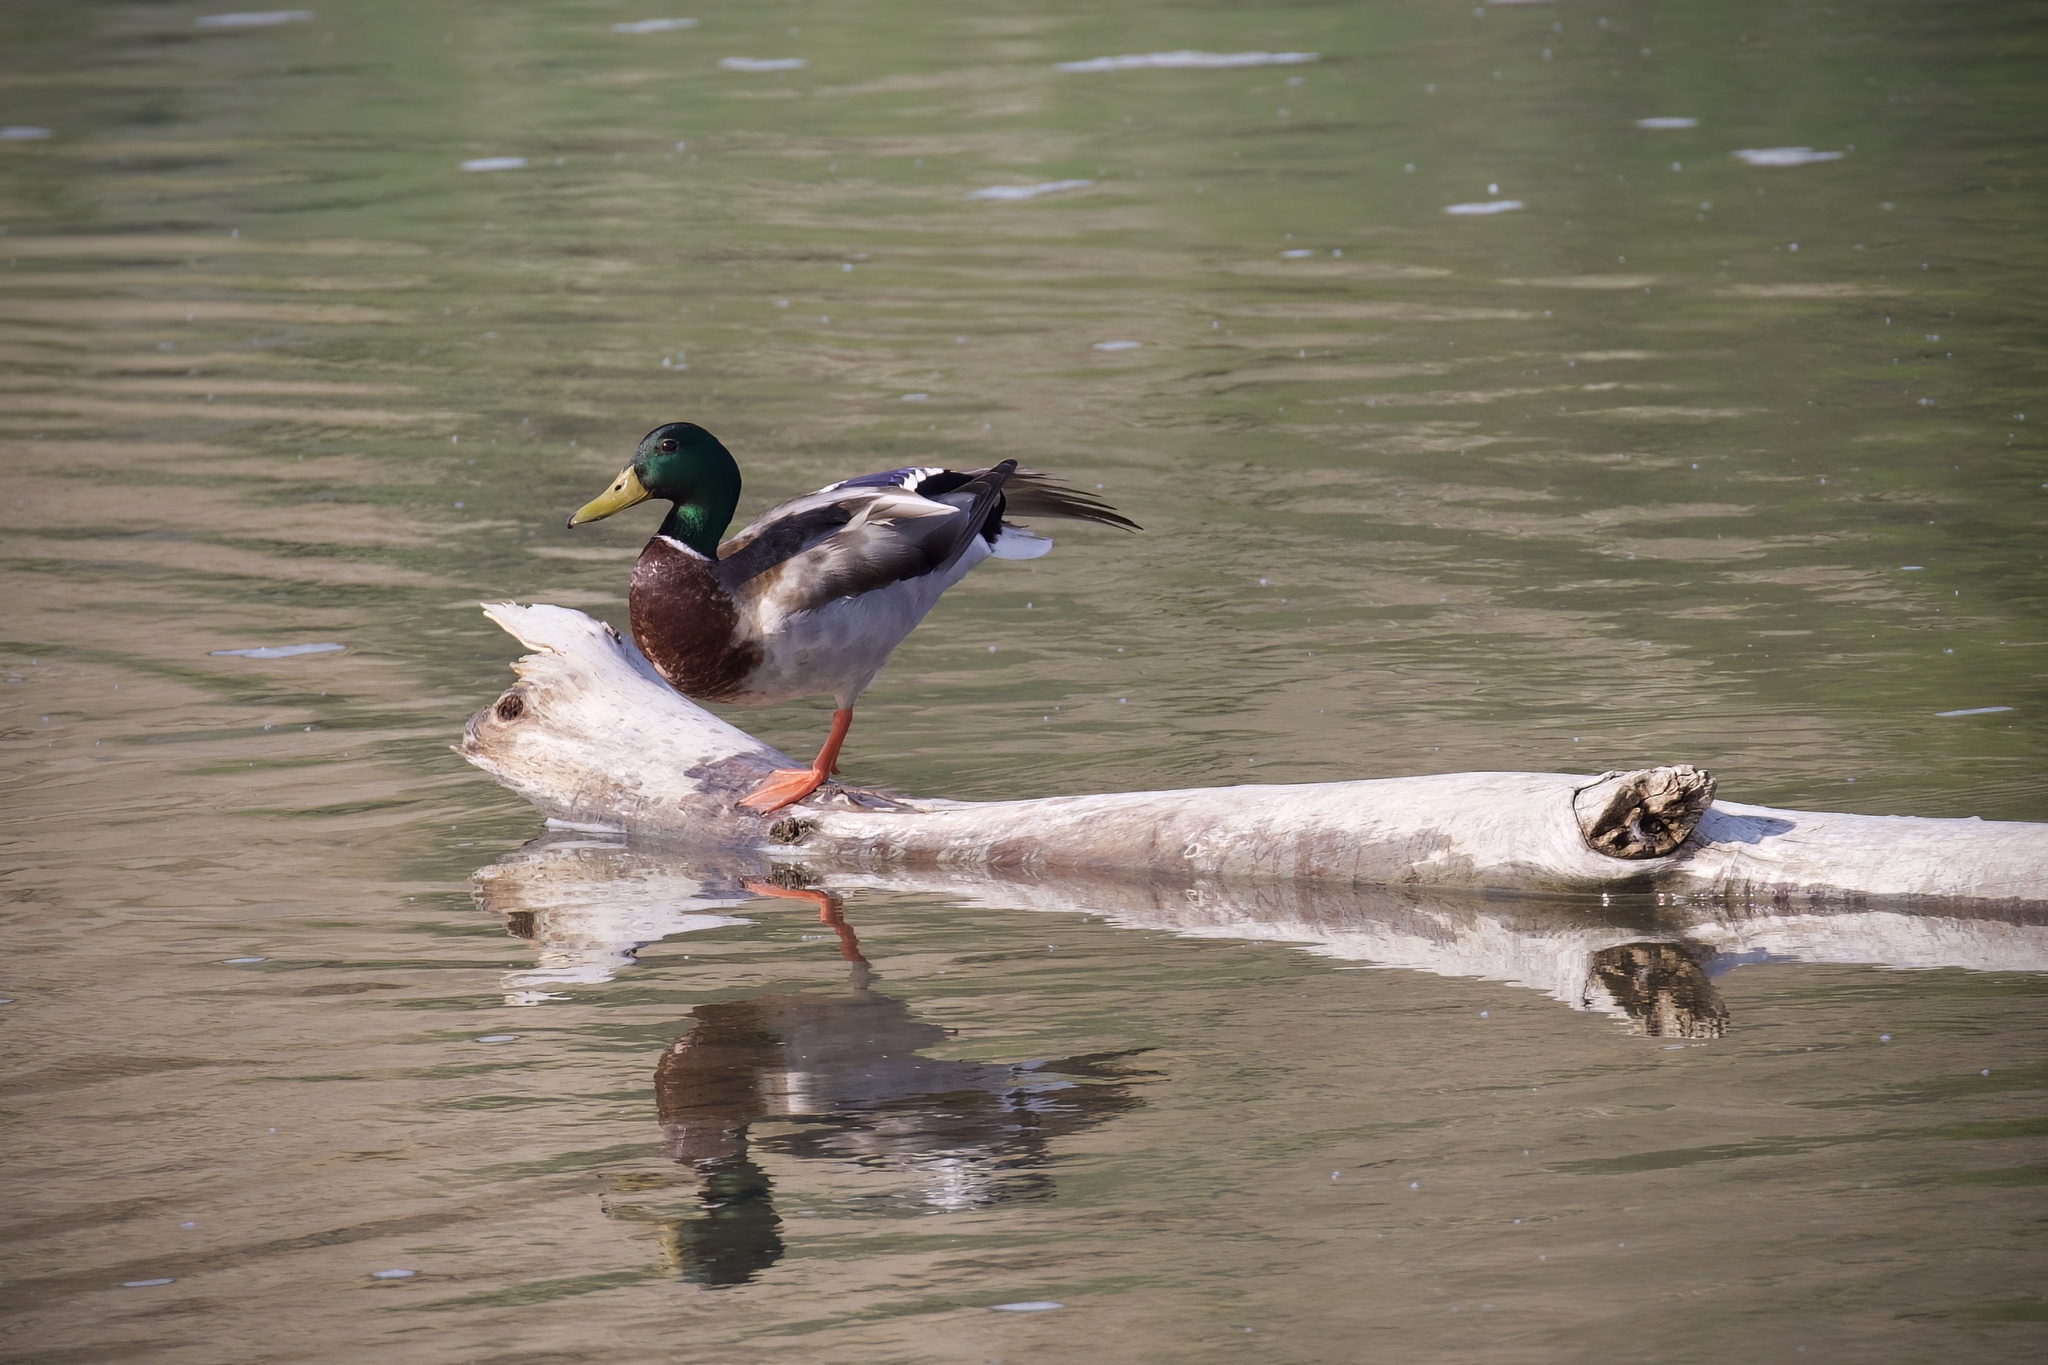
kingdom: Animalia
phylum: Chordata
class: Aves
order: Anseriformes
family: Anatidae
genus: Anas
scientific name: Anas platyrhynchos
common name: Mallard
